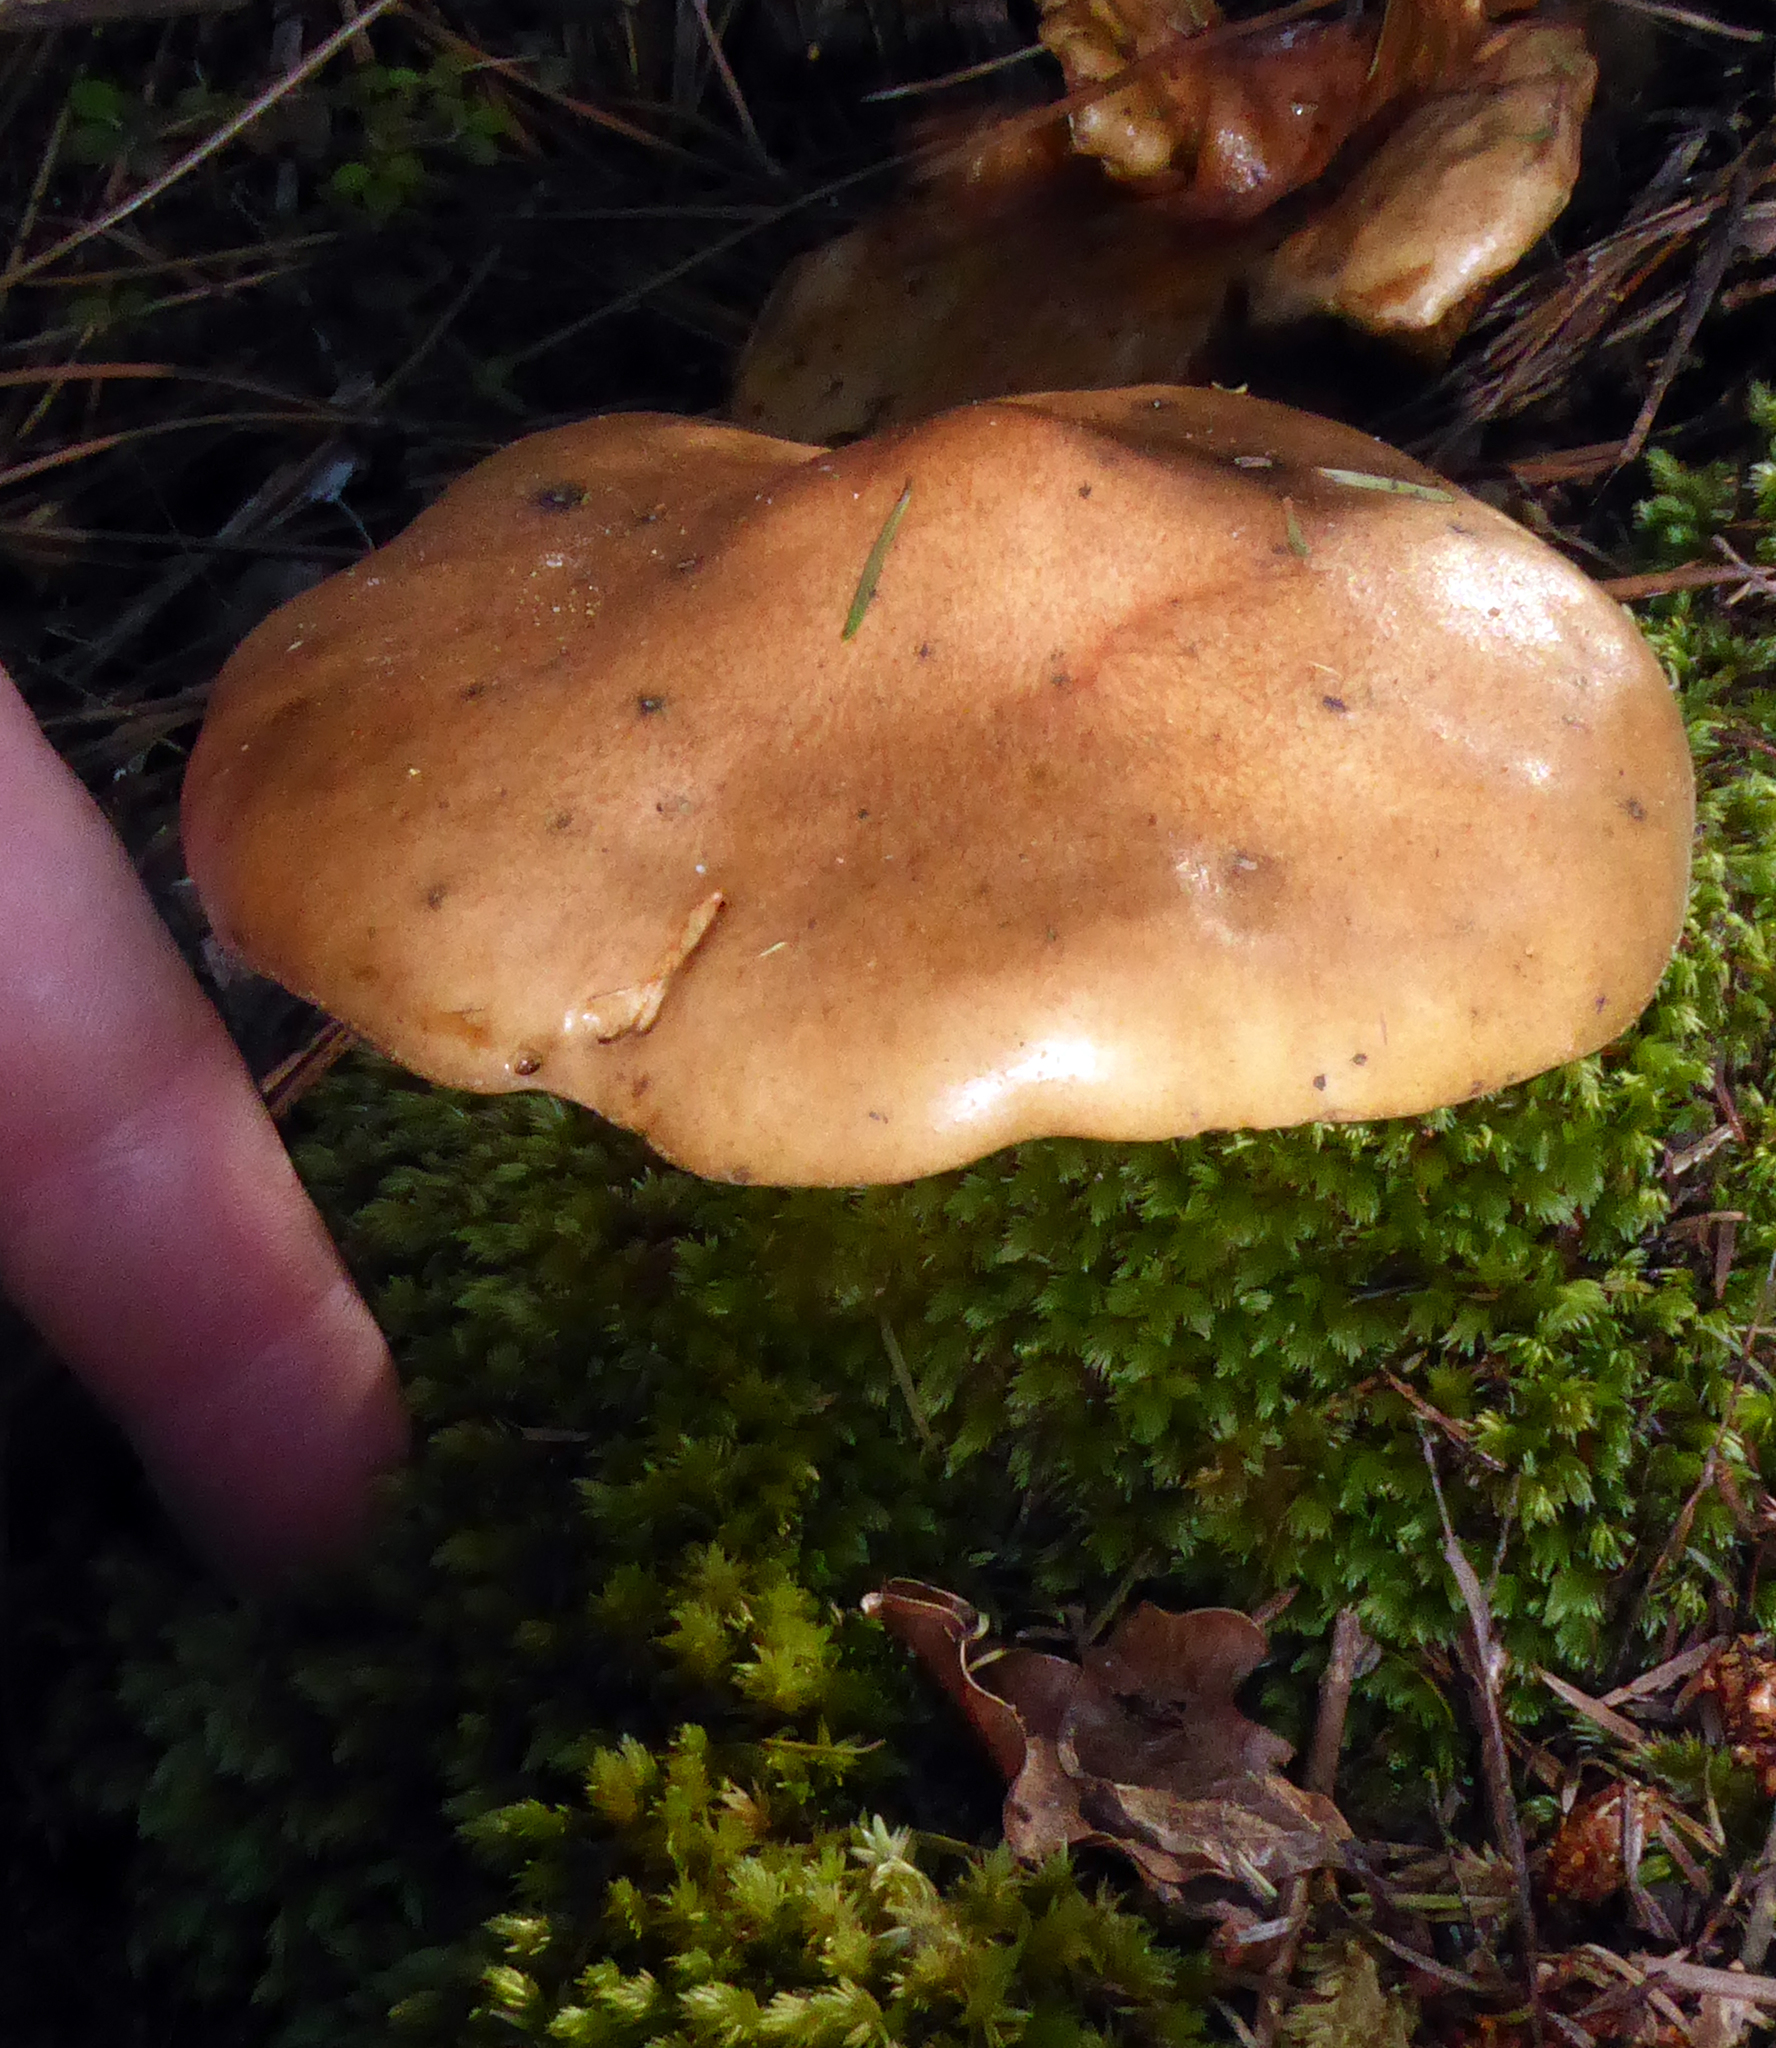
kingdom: Fungi
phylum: Basidiomycota
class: Agaricomycetes
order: Boletales
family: Suillaceae
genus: Suillus
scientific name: Suillus bovinus
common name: Bovine bolete
